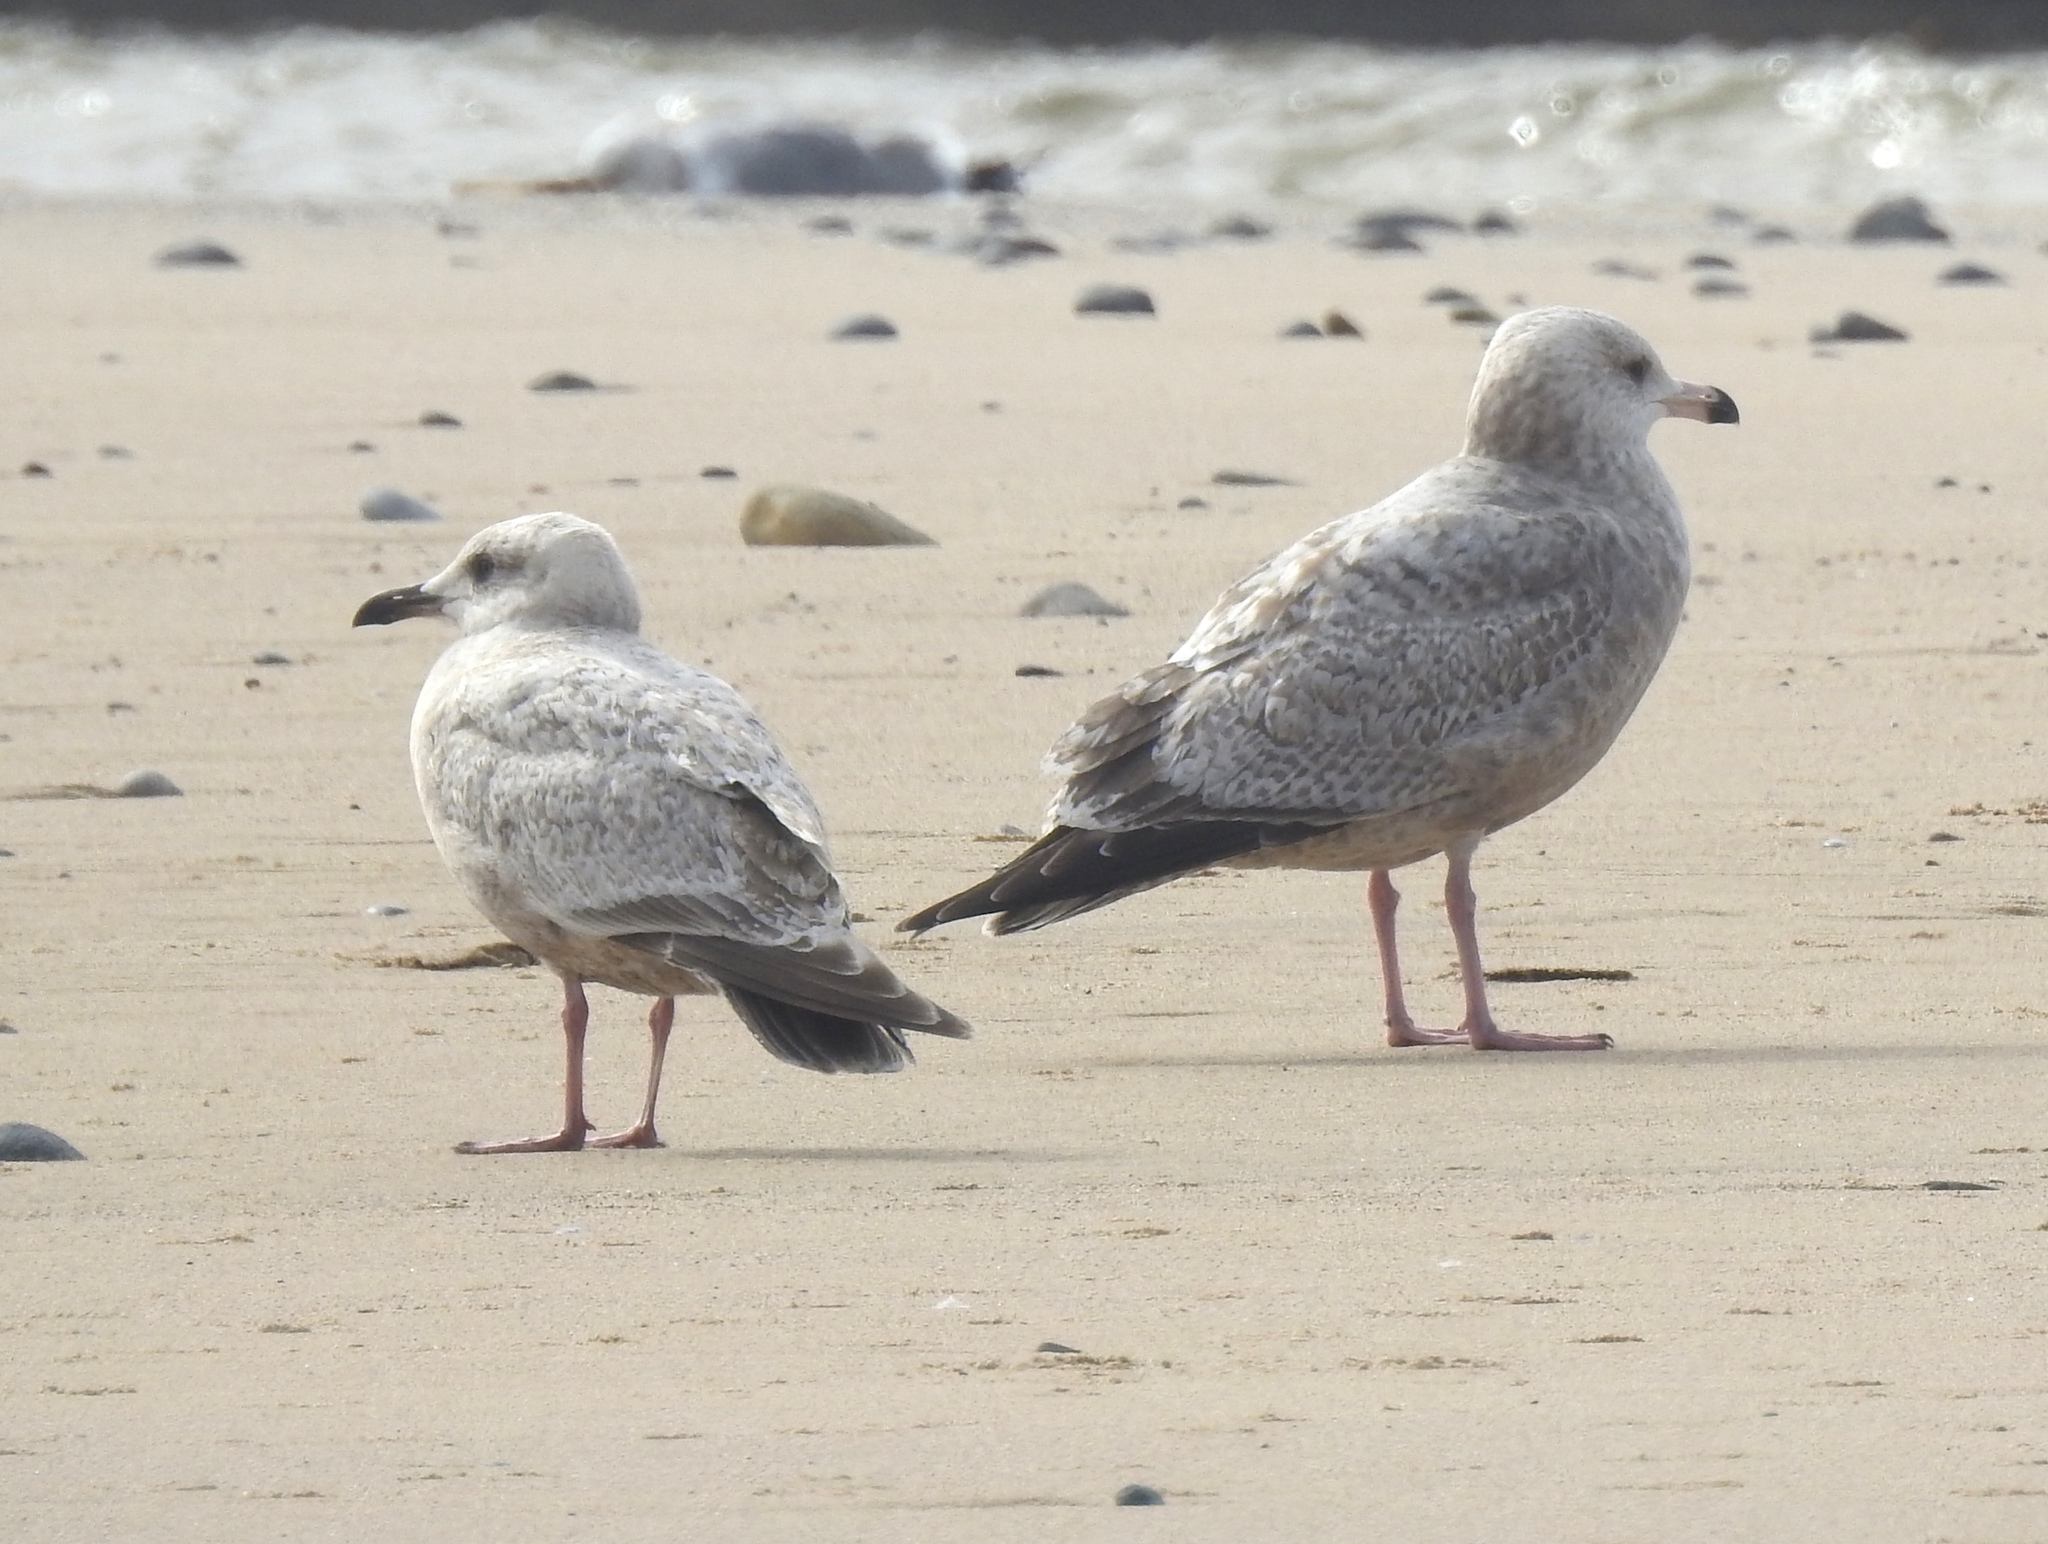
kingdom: Animalia
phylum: Chordata
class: Aves
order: Charadriiformes
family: Laridae
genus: Larus
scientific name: Larus glaucoides
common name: Iceland gull
